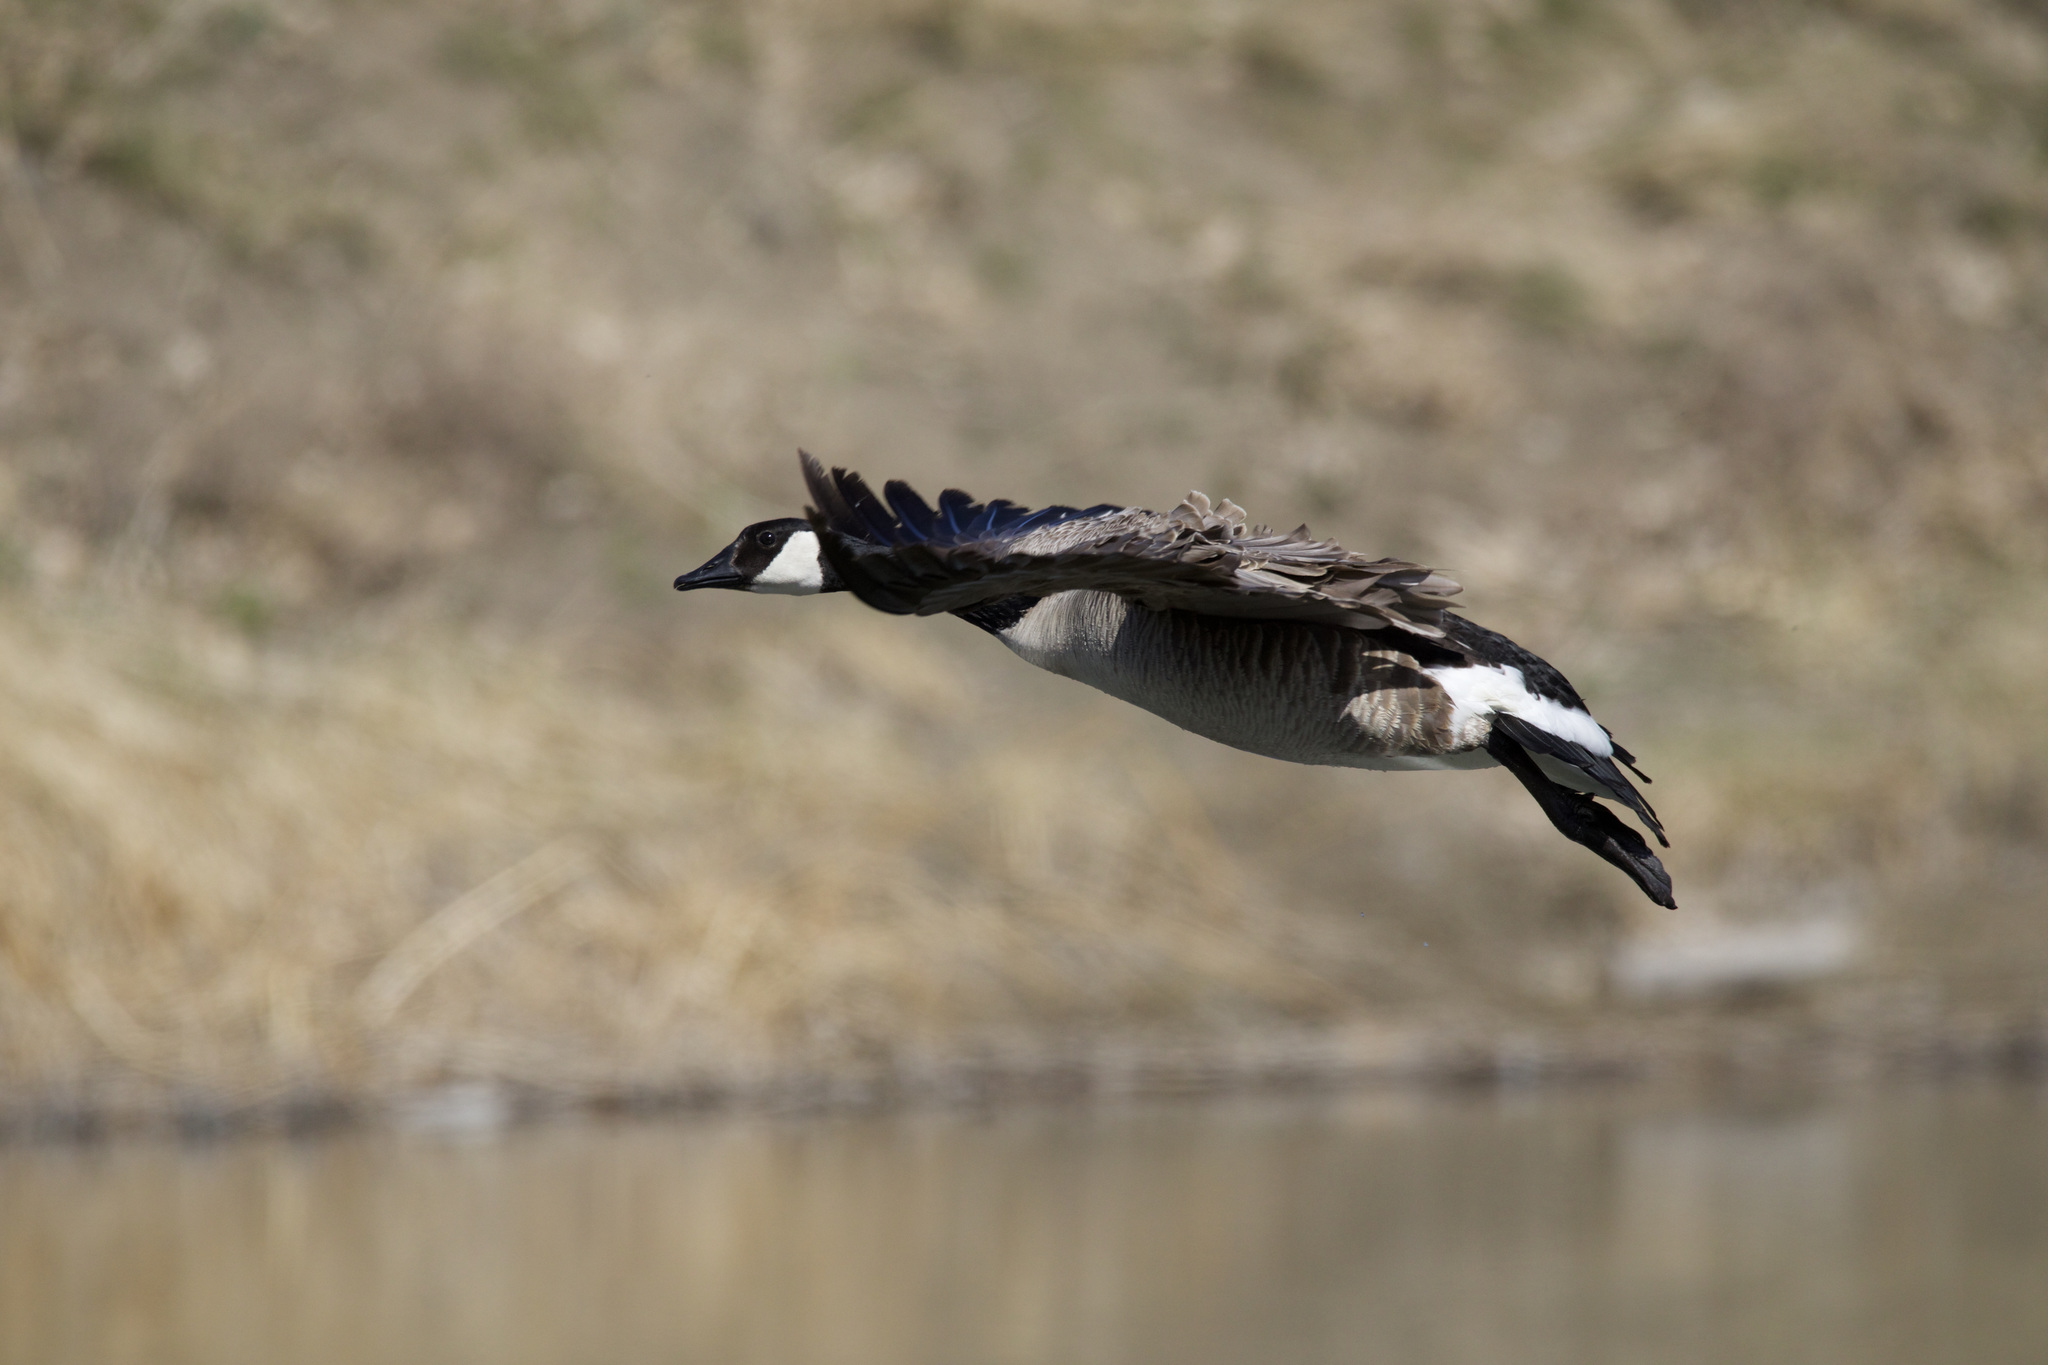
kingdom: Animalia
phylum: Chordata
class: Aves
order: Anseriformes
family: Anatidae
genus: Branta
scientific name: Branta canadensis
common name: Canada goose
